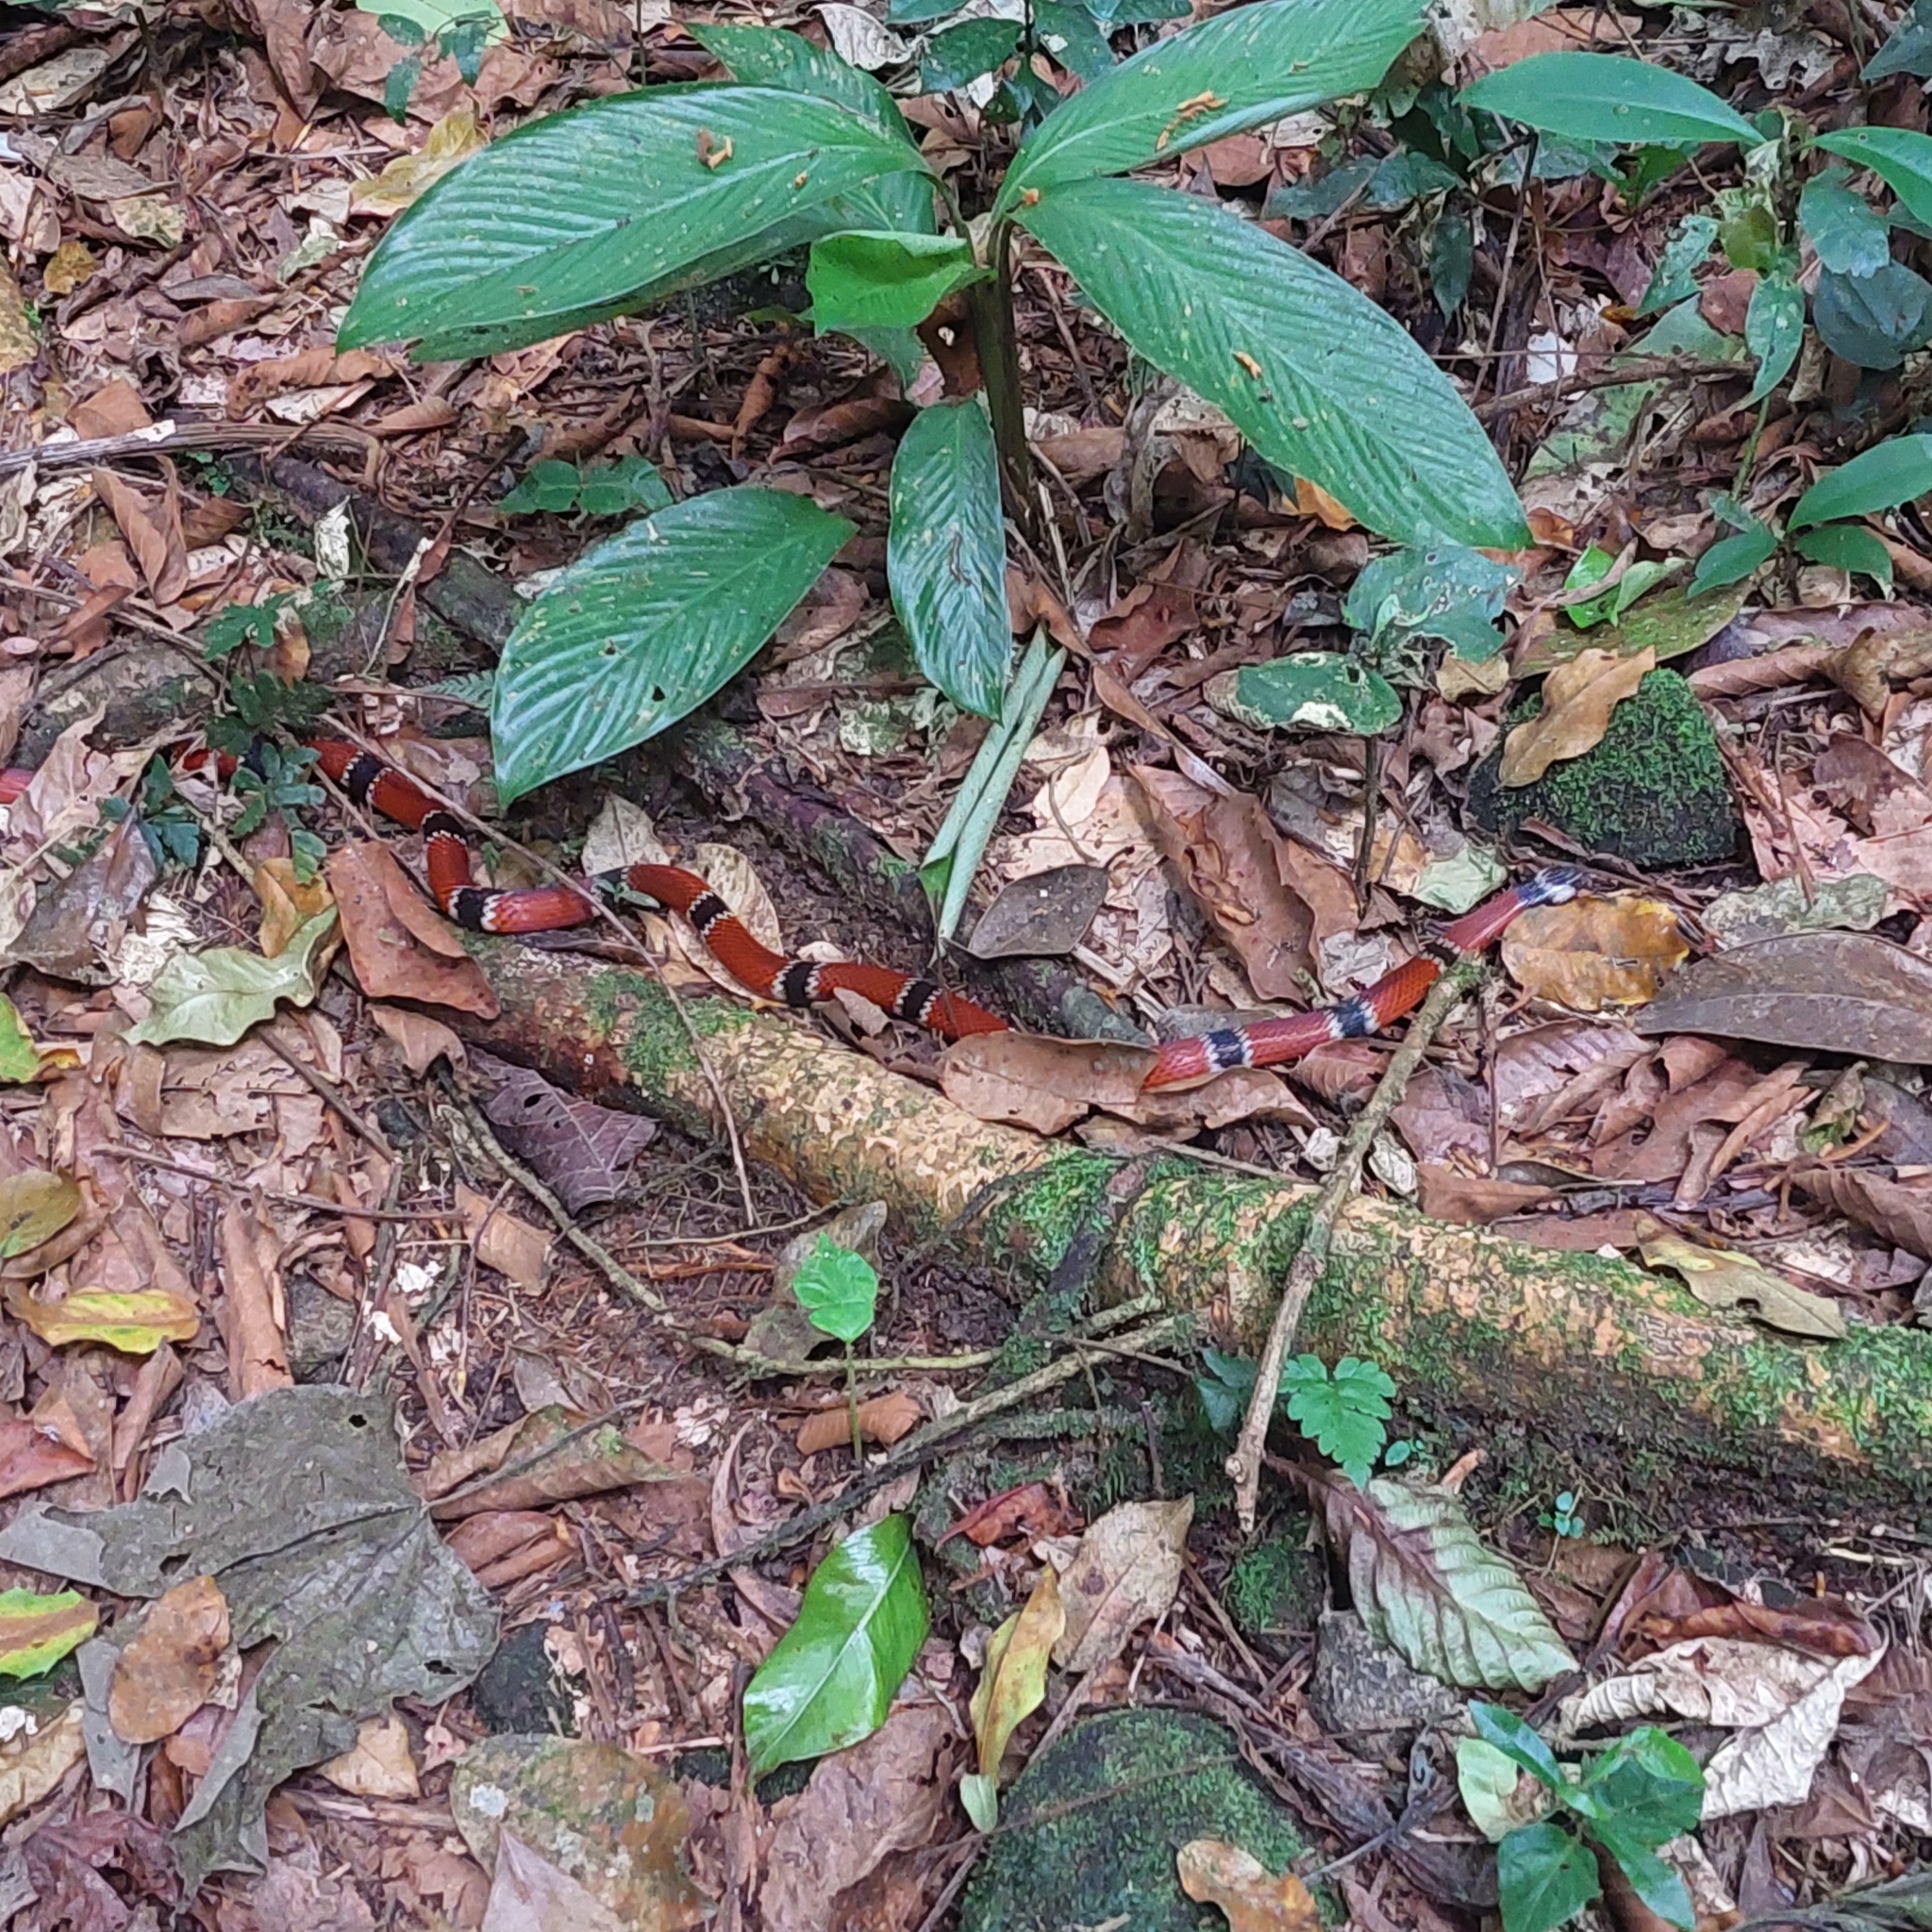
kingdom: Animalia
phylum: Chordata
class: Squamata
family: Elapidae
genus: Micrurus
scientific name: Micrurus corallinus
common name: Painted coral snake
